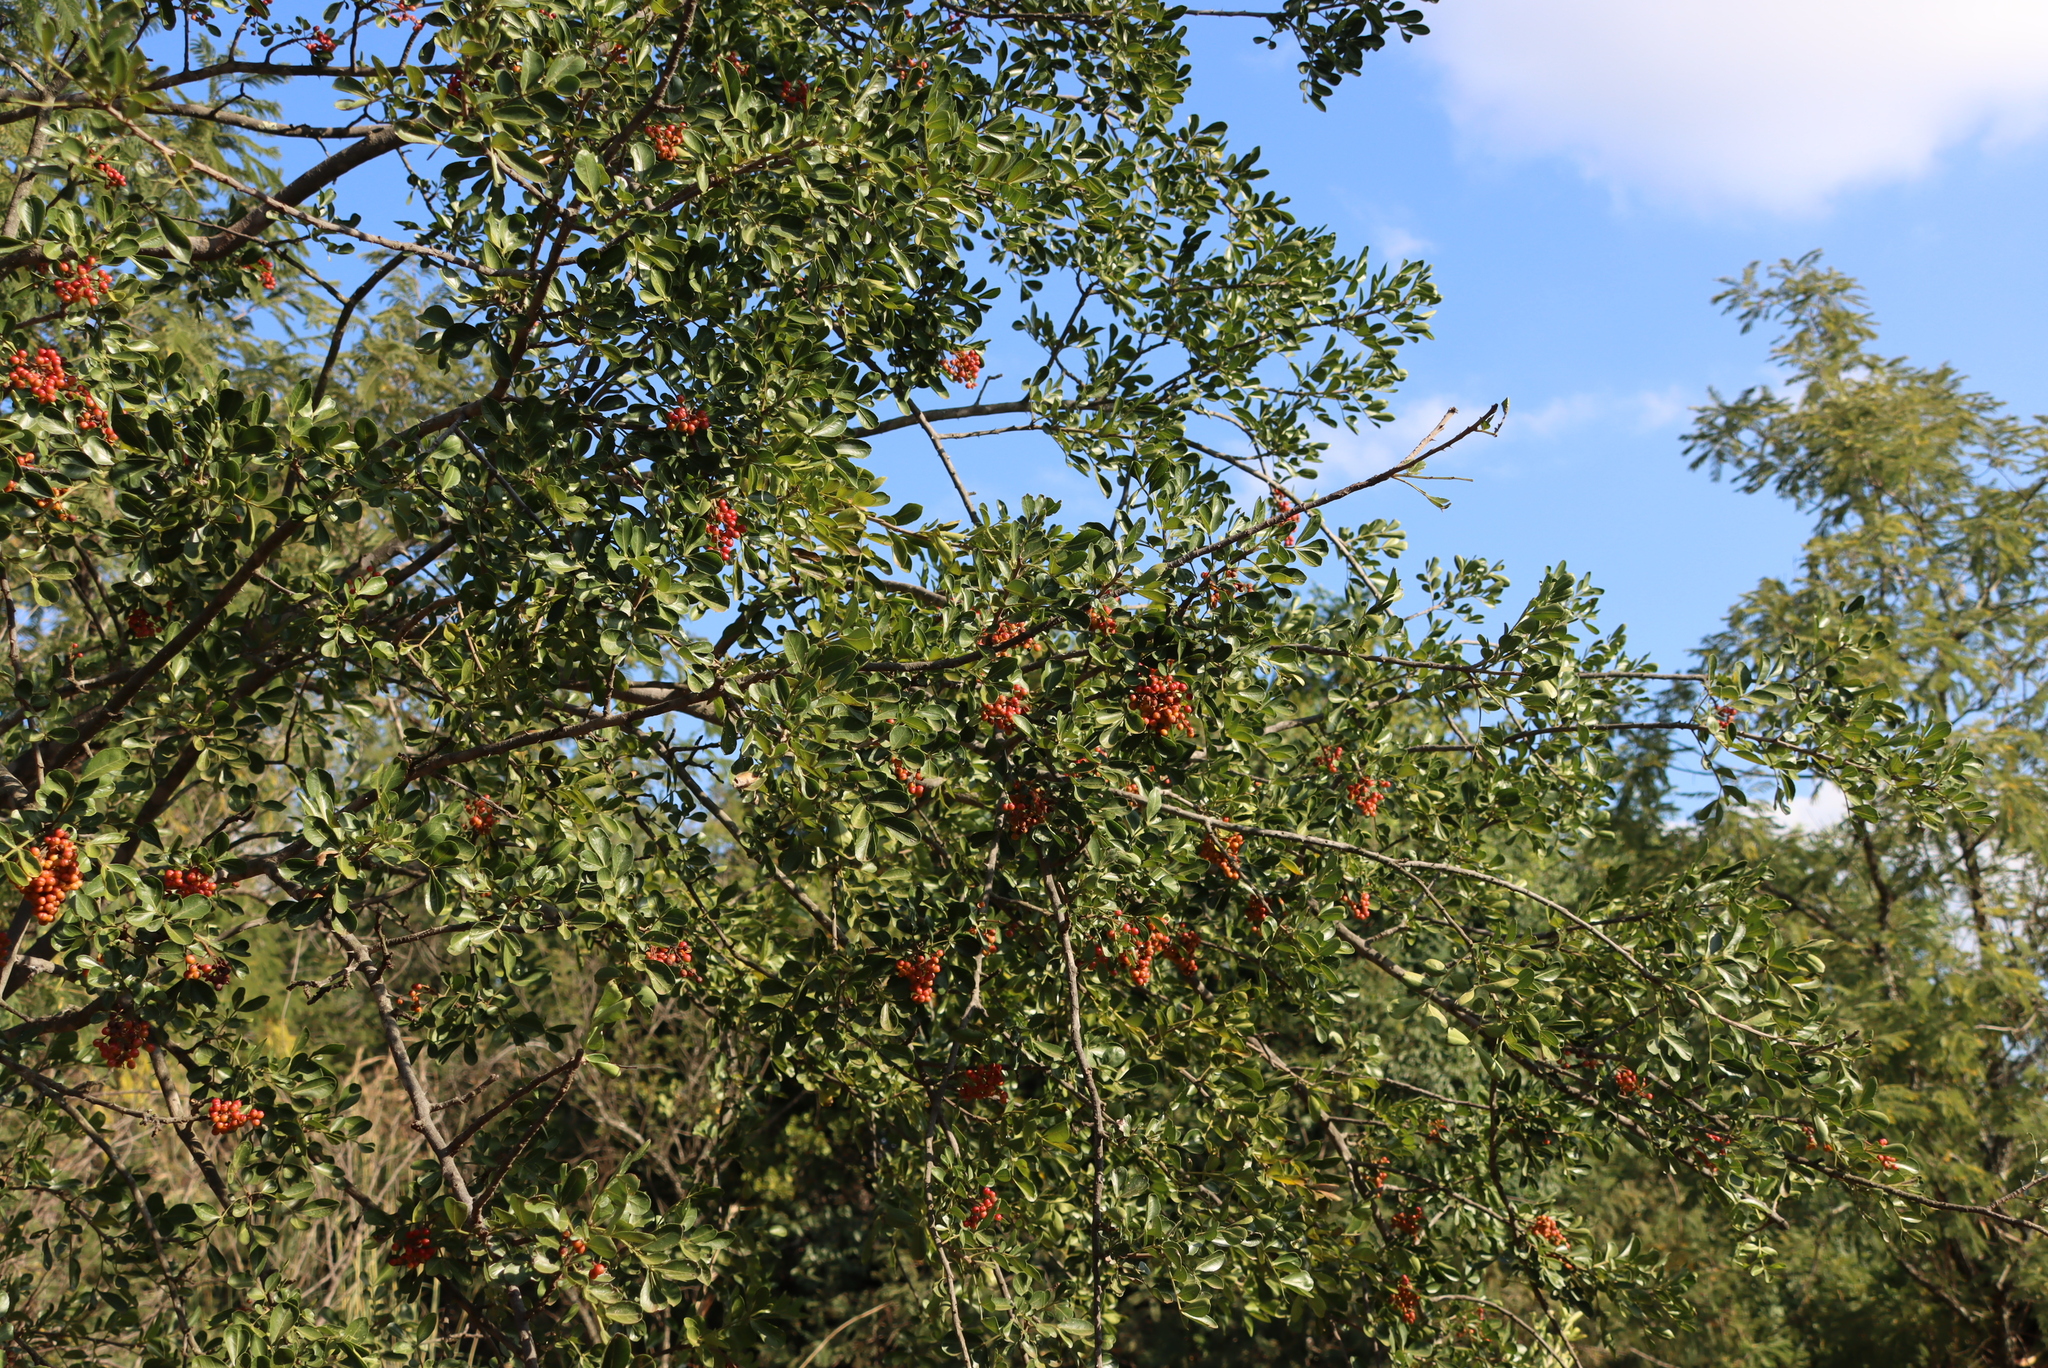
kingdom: Plantae
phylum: Tracheophyta
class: Magnoliopsida
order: Sapindales
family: Rutaceae
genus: Zanthoxylum
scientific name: Zanthoxylum capense
